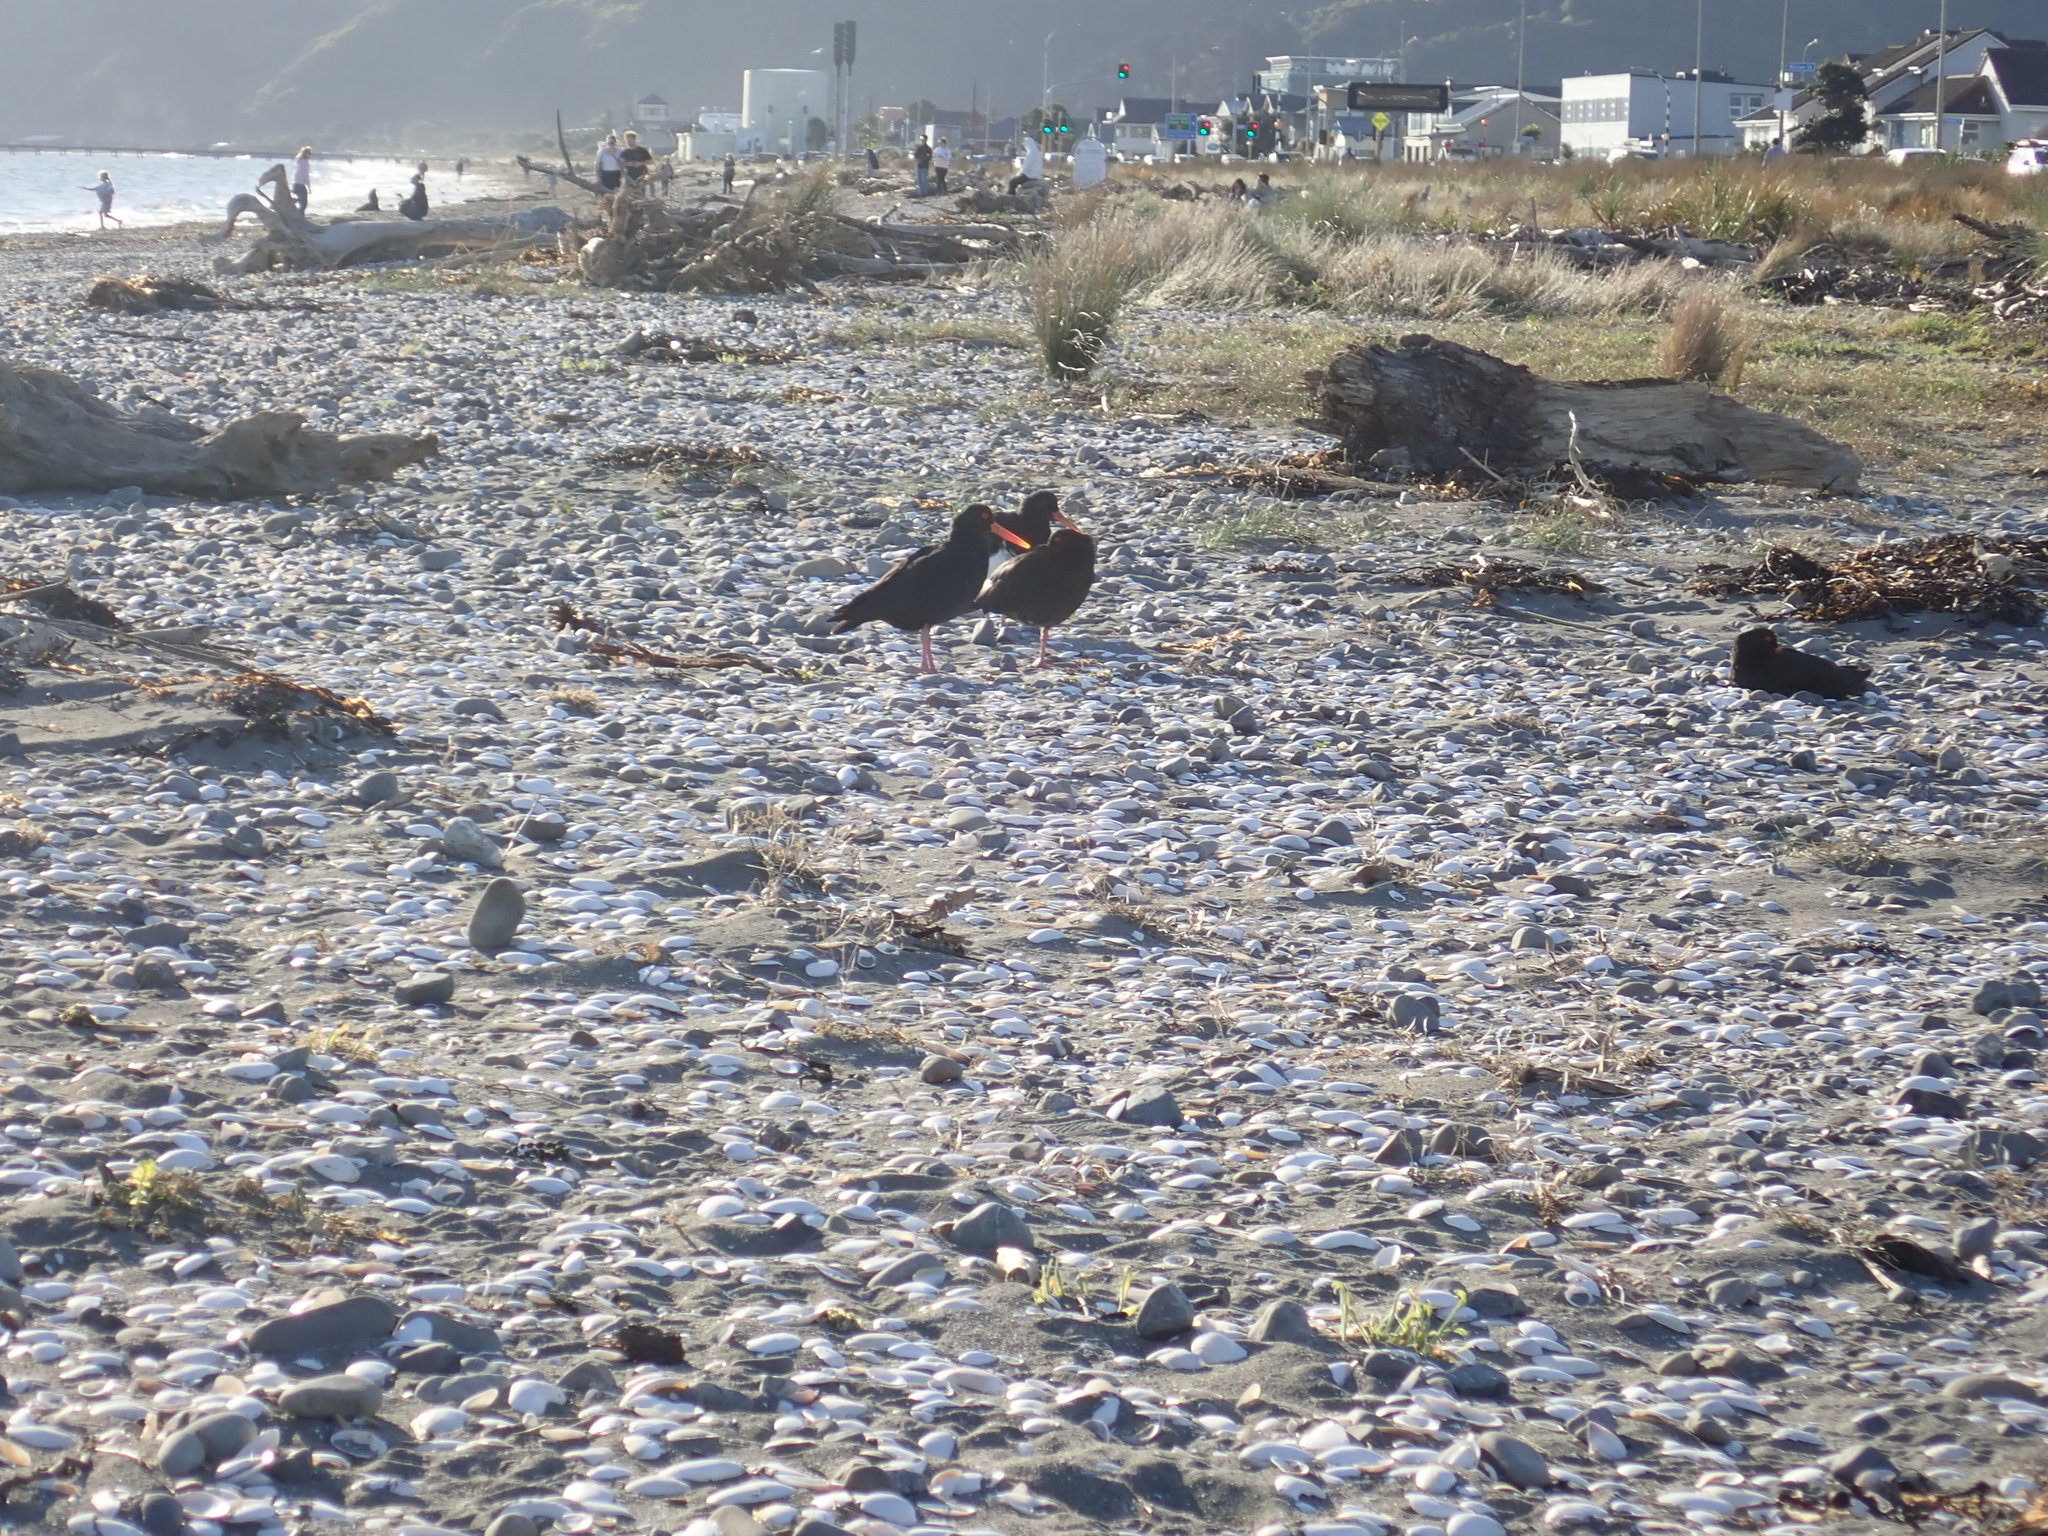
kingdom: Animalia
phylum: Chordata
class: Aves
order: Charadriiformes
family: Haematopodidae
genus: Haematopus
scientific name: Haematopus unicolor
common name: Variable oystercatcher
